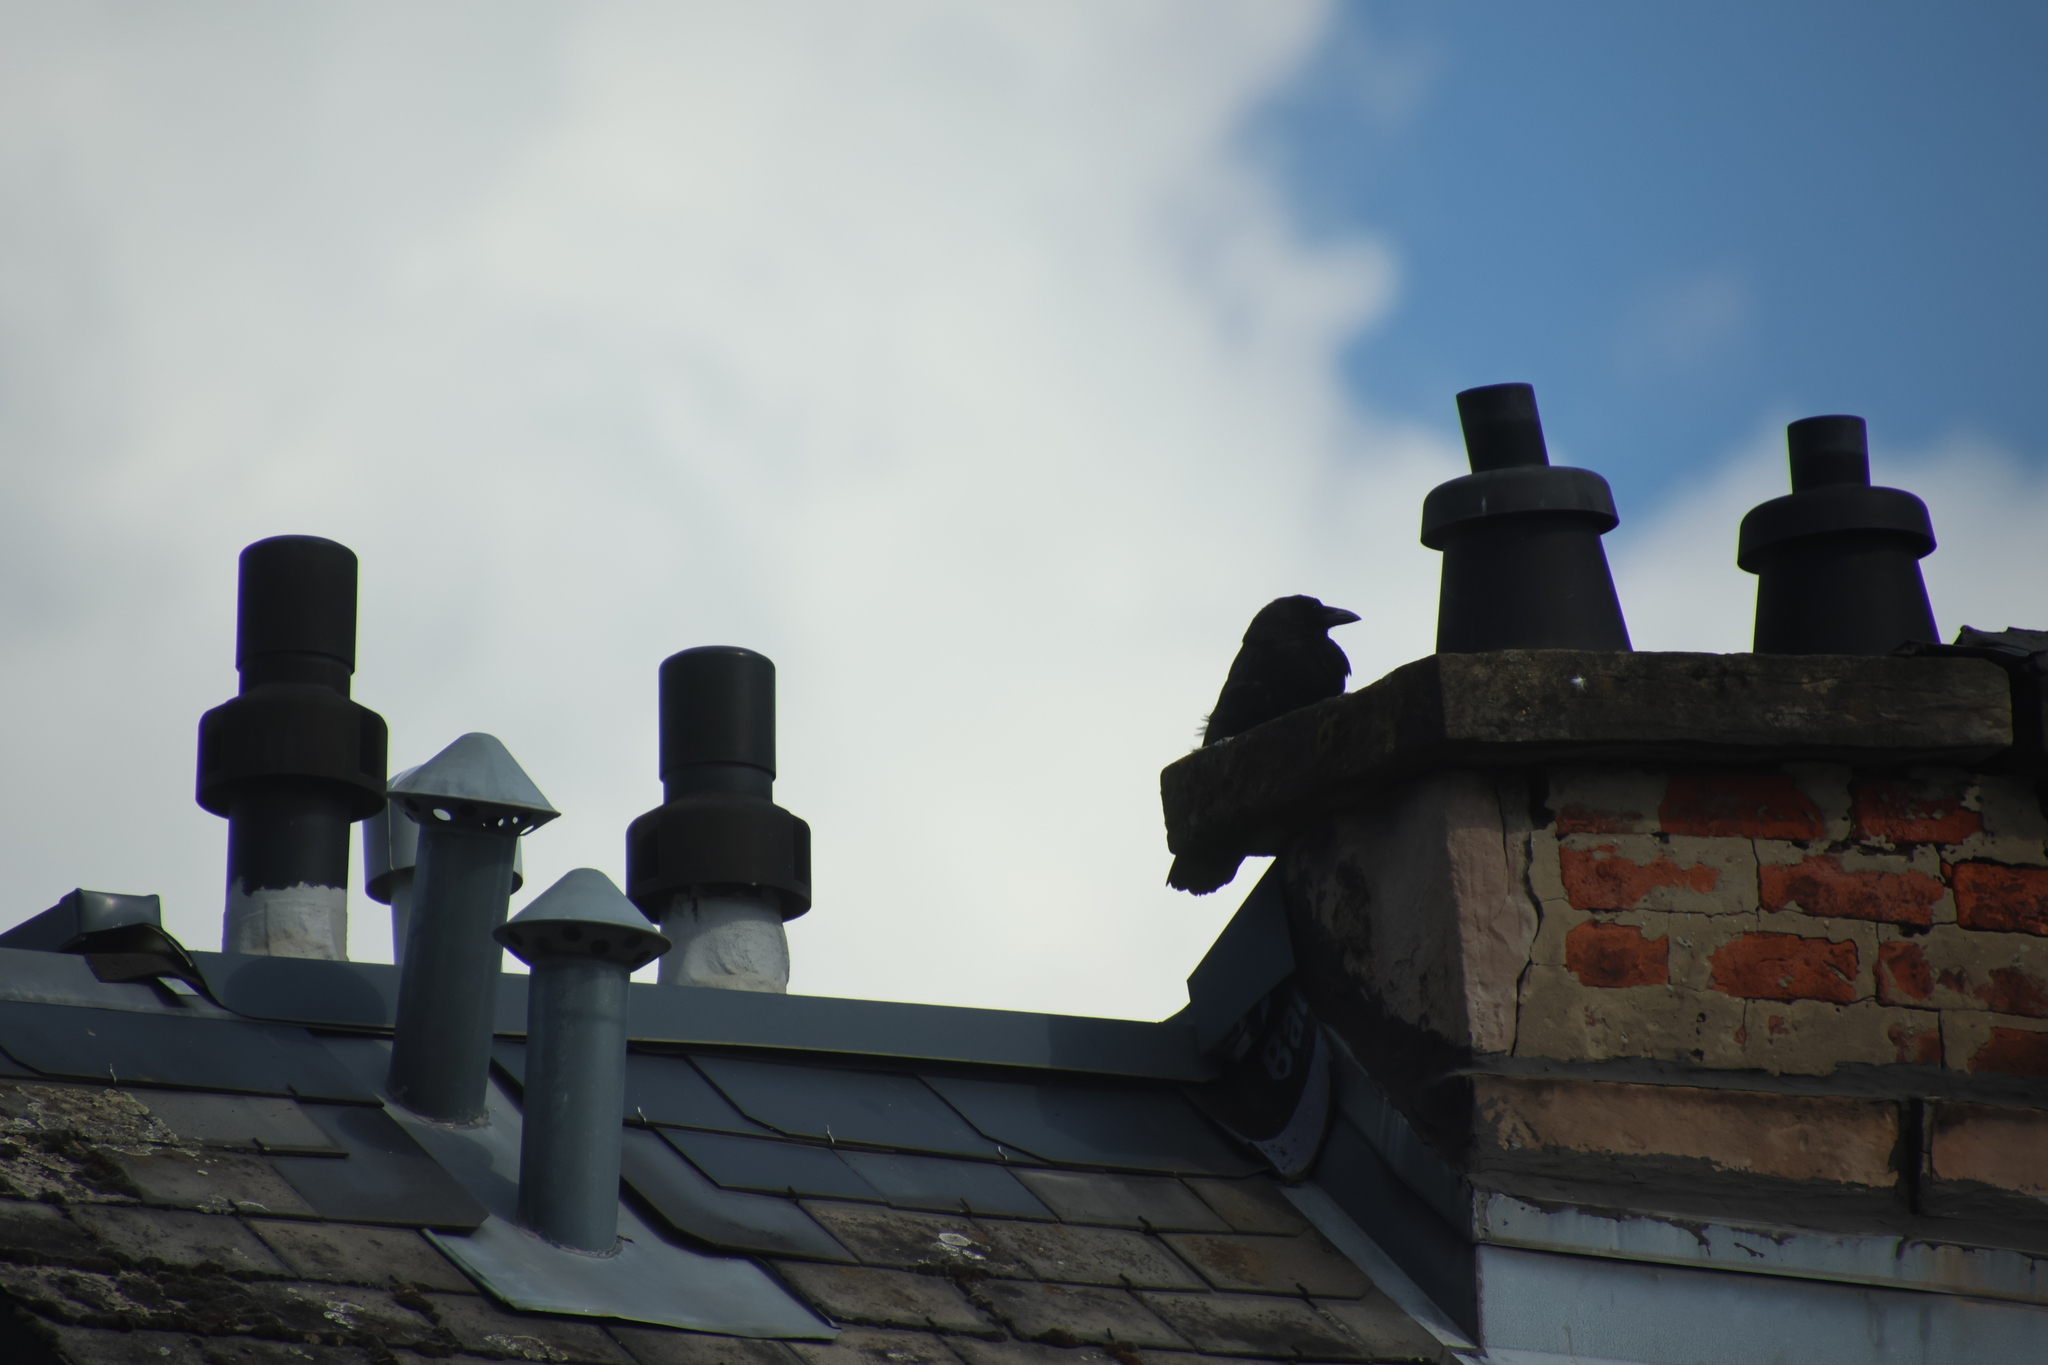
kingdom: Animalia
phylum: Chordata
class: Aves
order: Passeriformes
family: Corvidae
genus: Corvus
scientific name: Corvus corone
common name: Carrion crow
